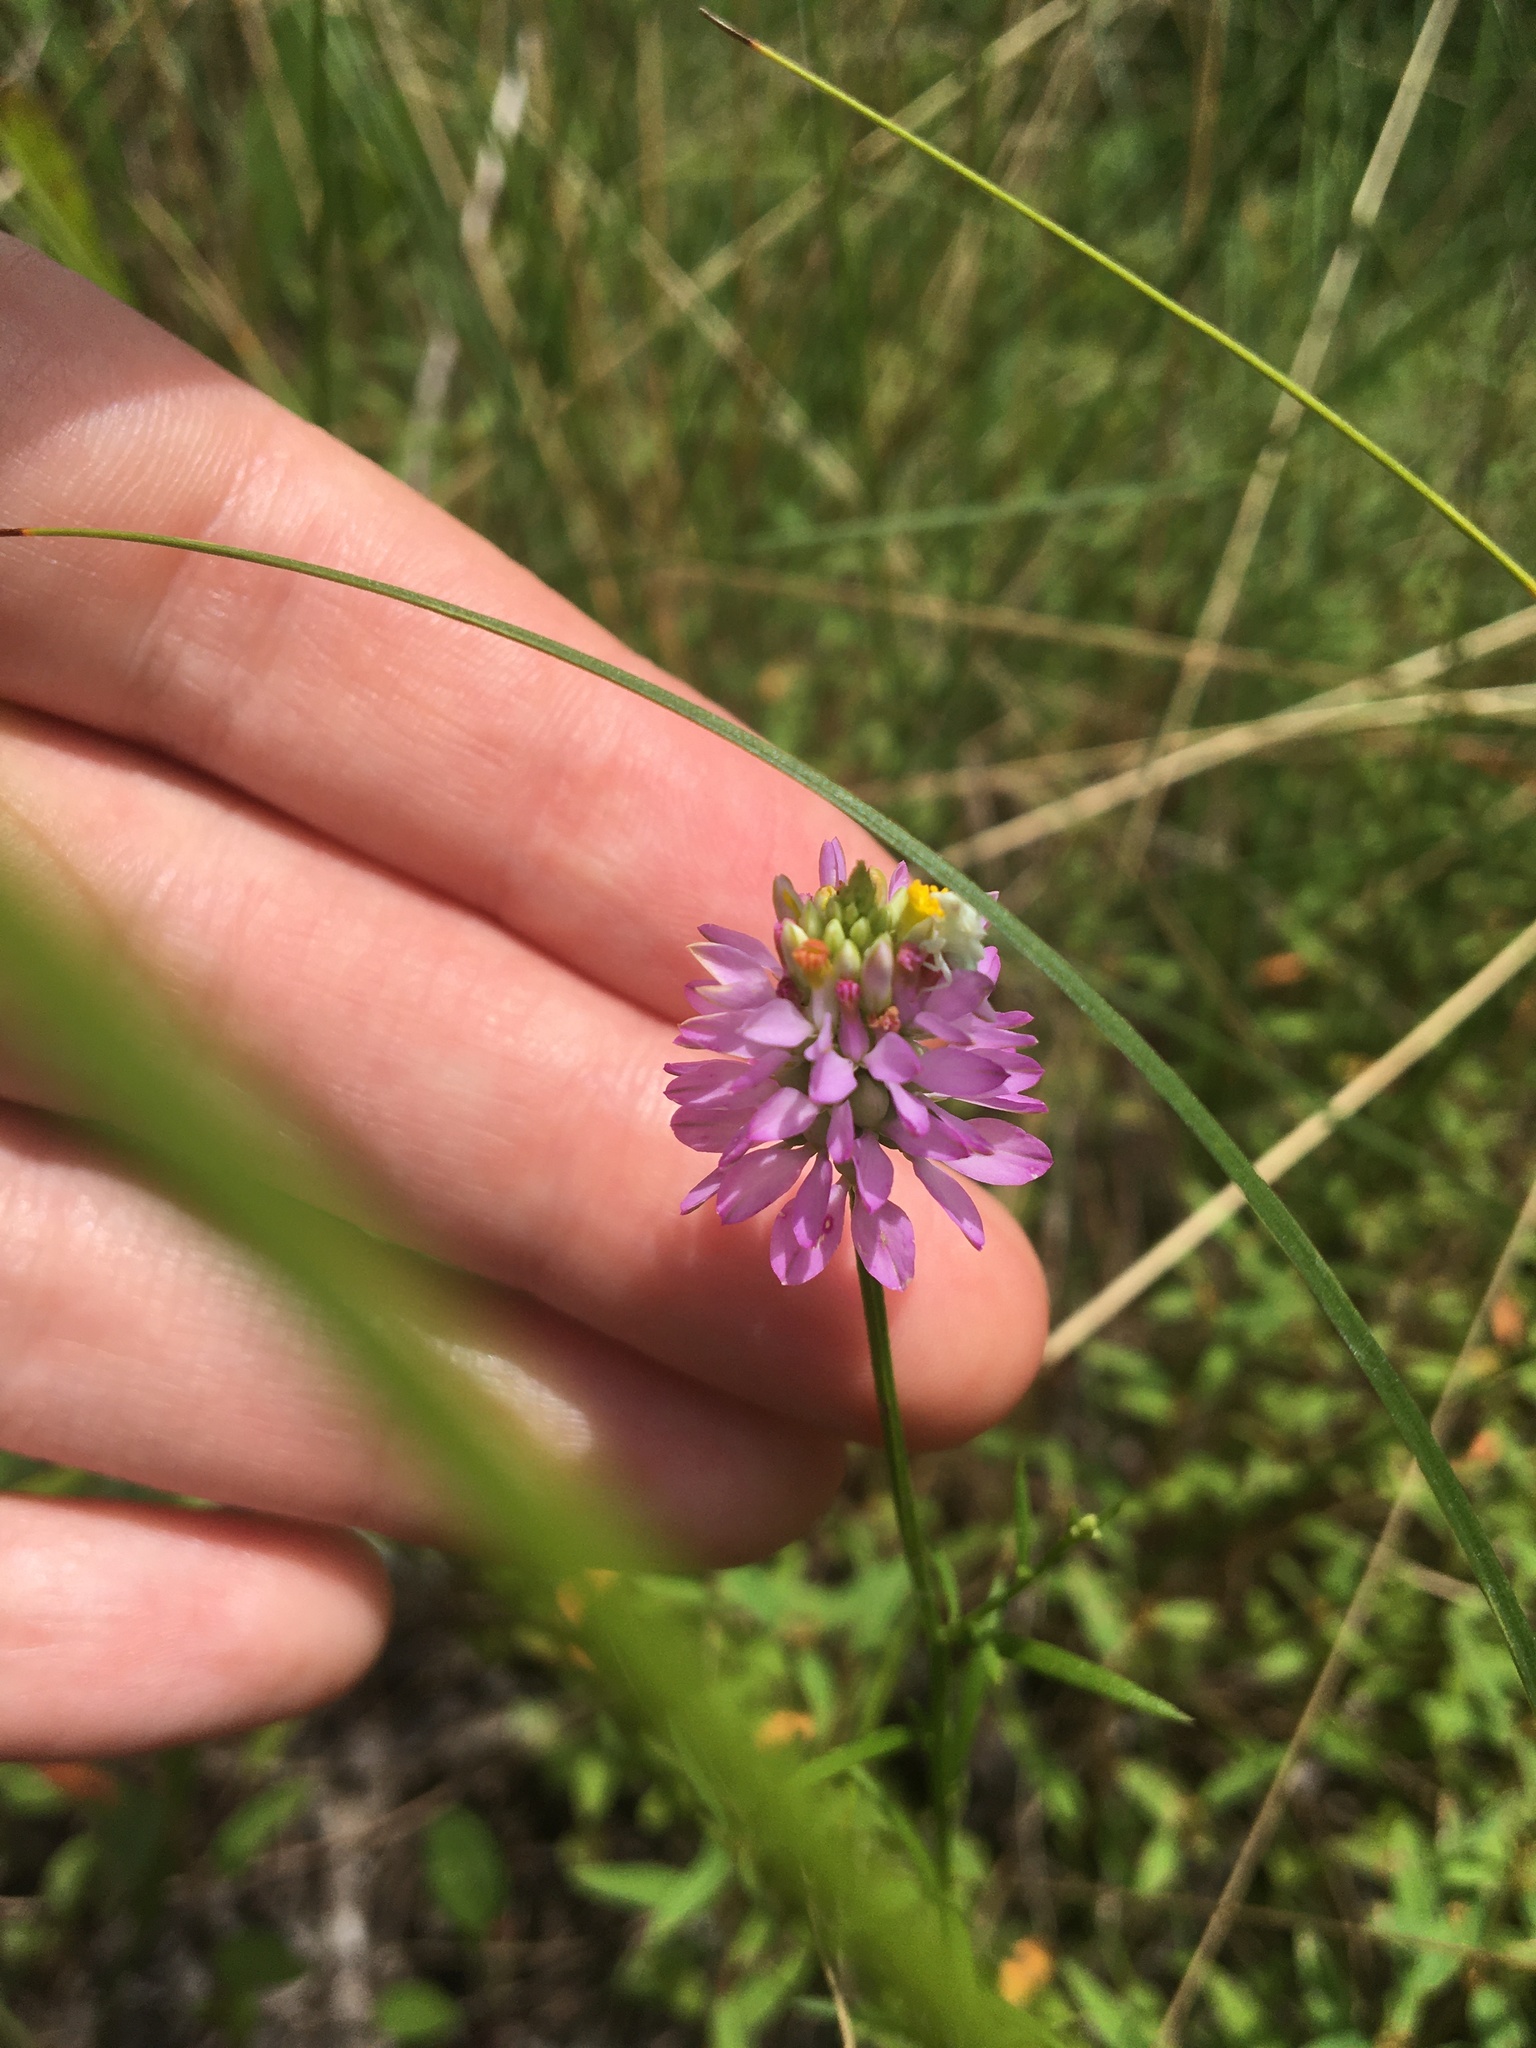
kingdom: Plantae
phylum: Tracheophyta
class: Magnoliopsida
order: Fabales
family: Polygalaceae
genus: Polygala
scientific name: Polygala curtissii
